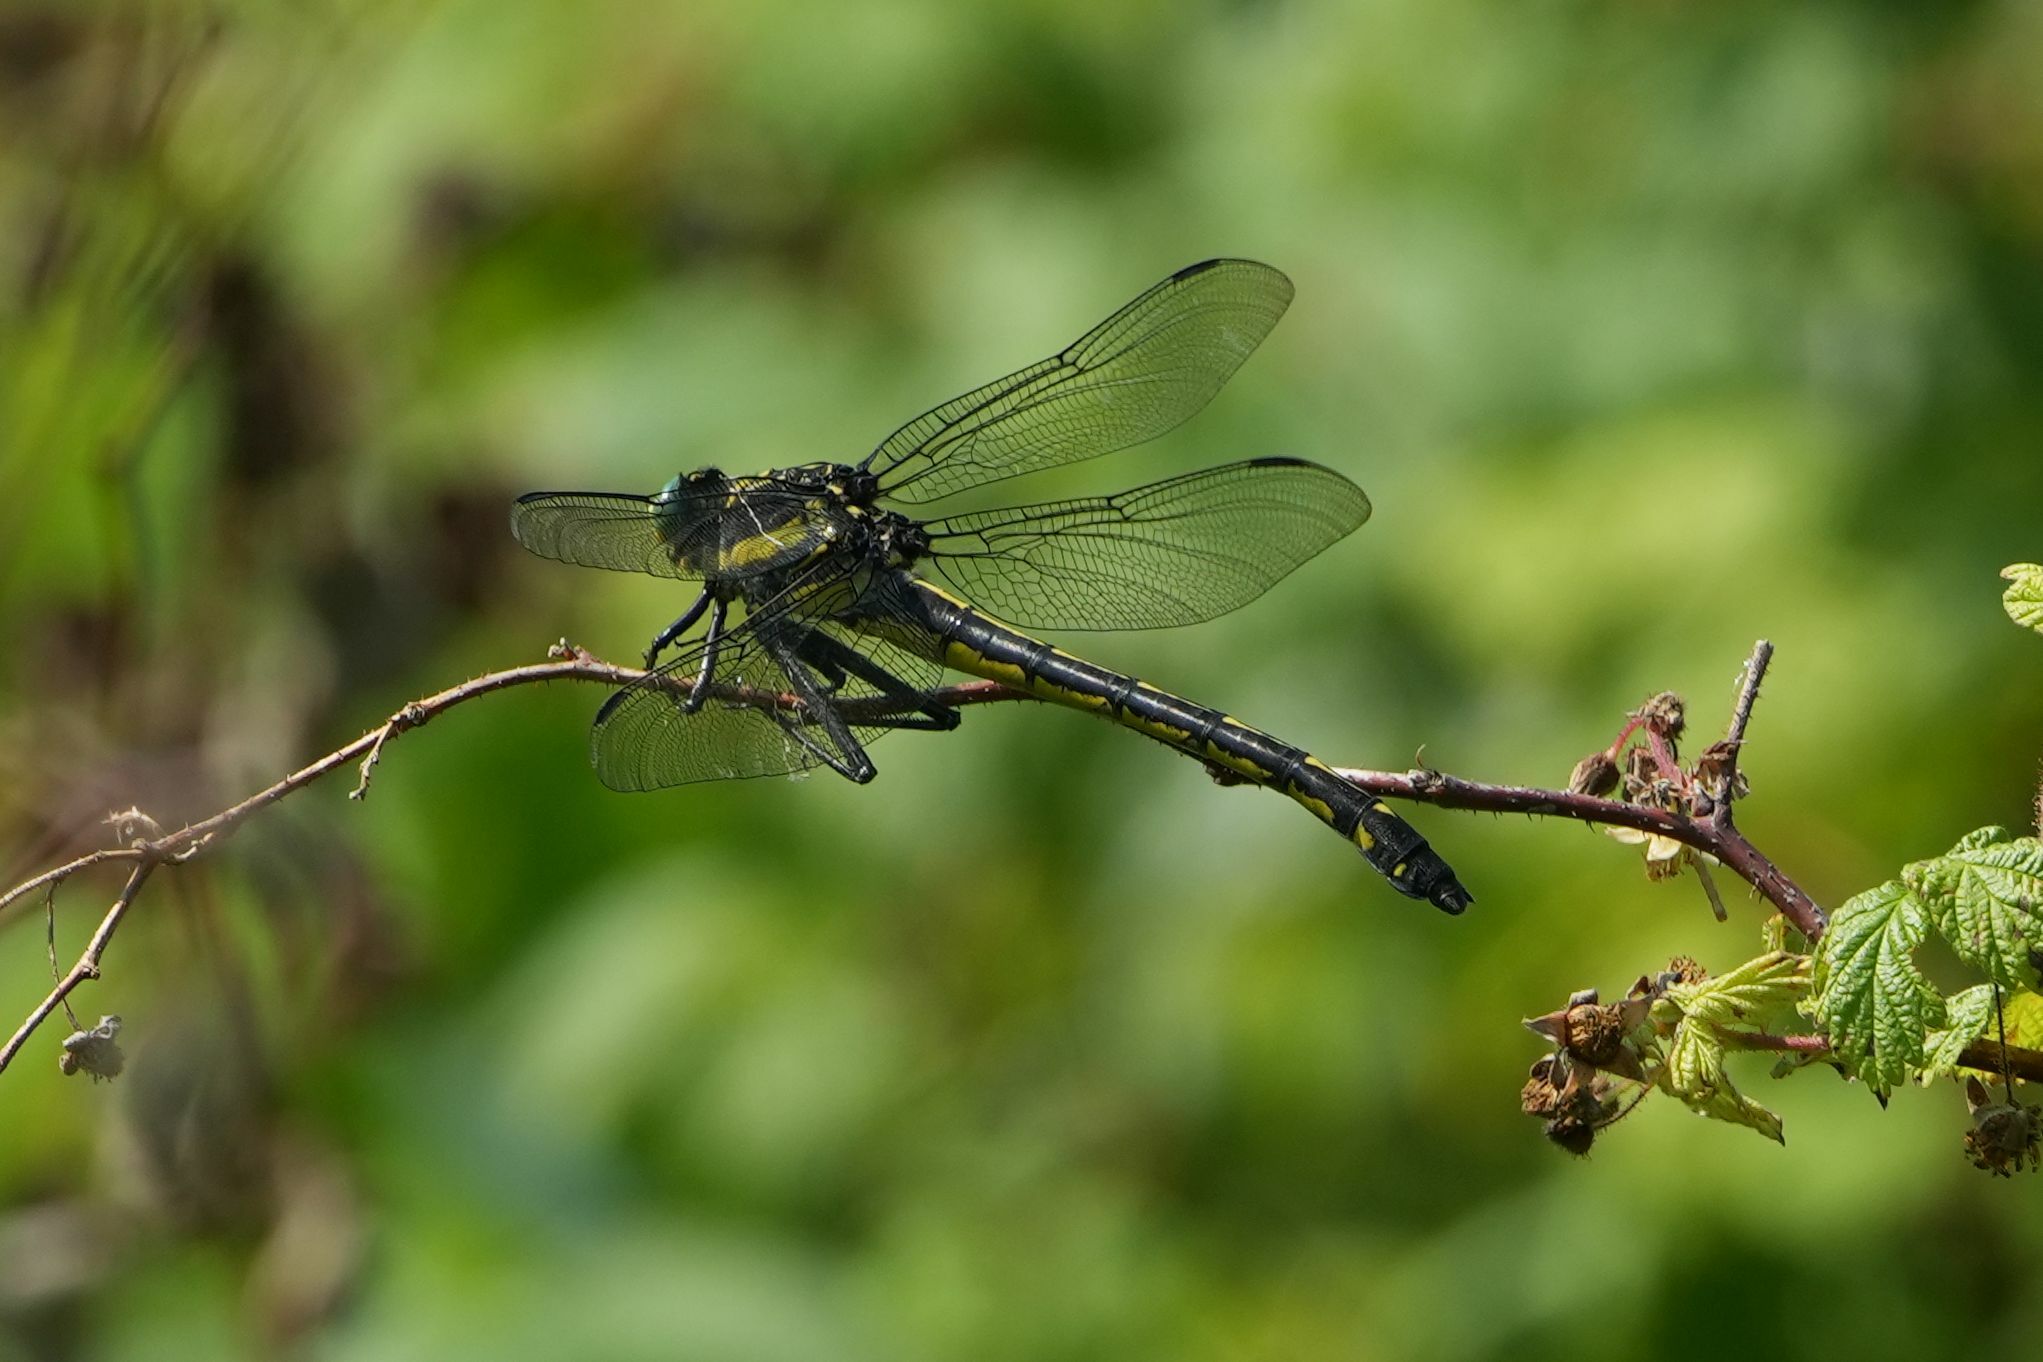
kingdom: Animalia
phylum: Arthropoda
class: Insecta
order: Odonata
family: Gomphidae
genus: Hagenius
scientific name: Hagenius brevistylus
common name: Dragonhunter
